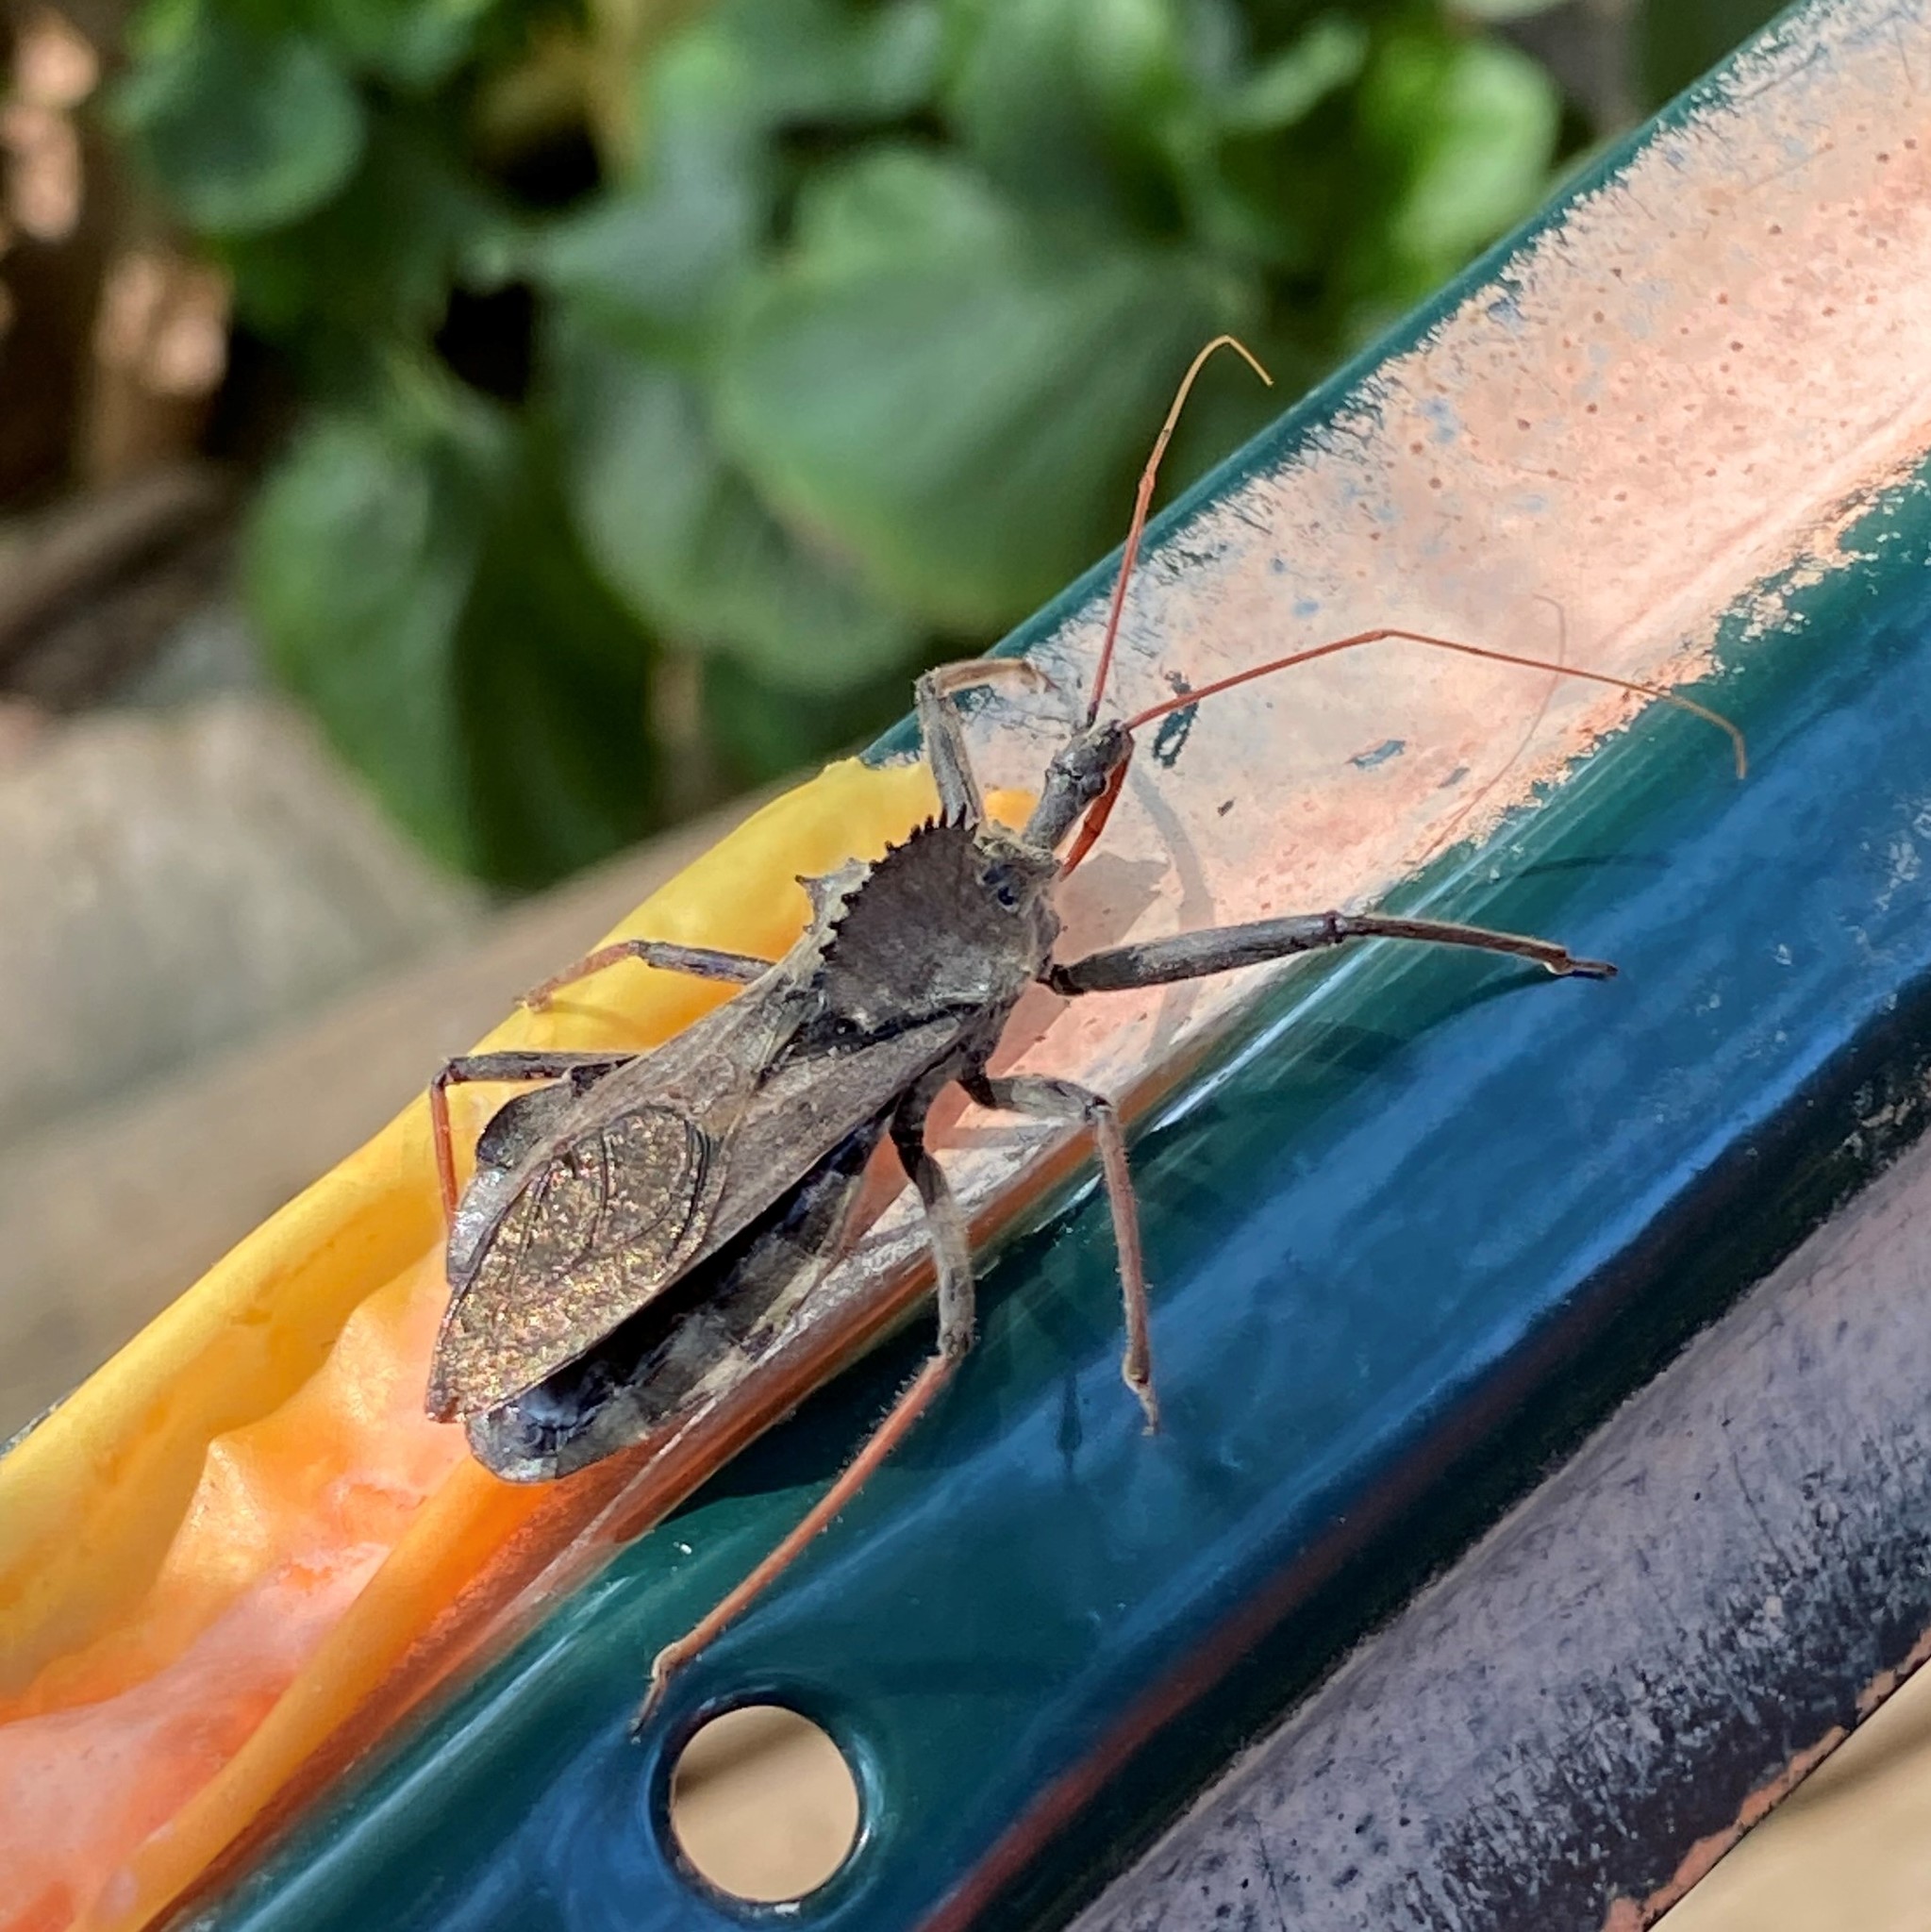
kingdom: Animalia
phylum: Arthropoda
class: Insecta
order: Hemiptera
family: Reduviidae
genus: Arilus
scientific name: Arilus cristatus
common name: North american wheel bug
